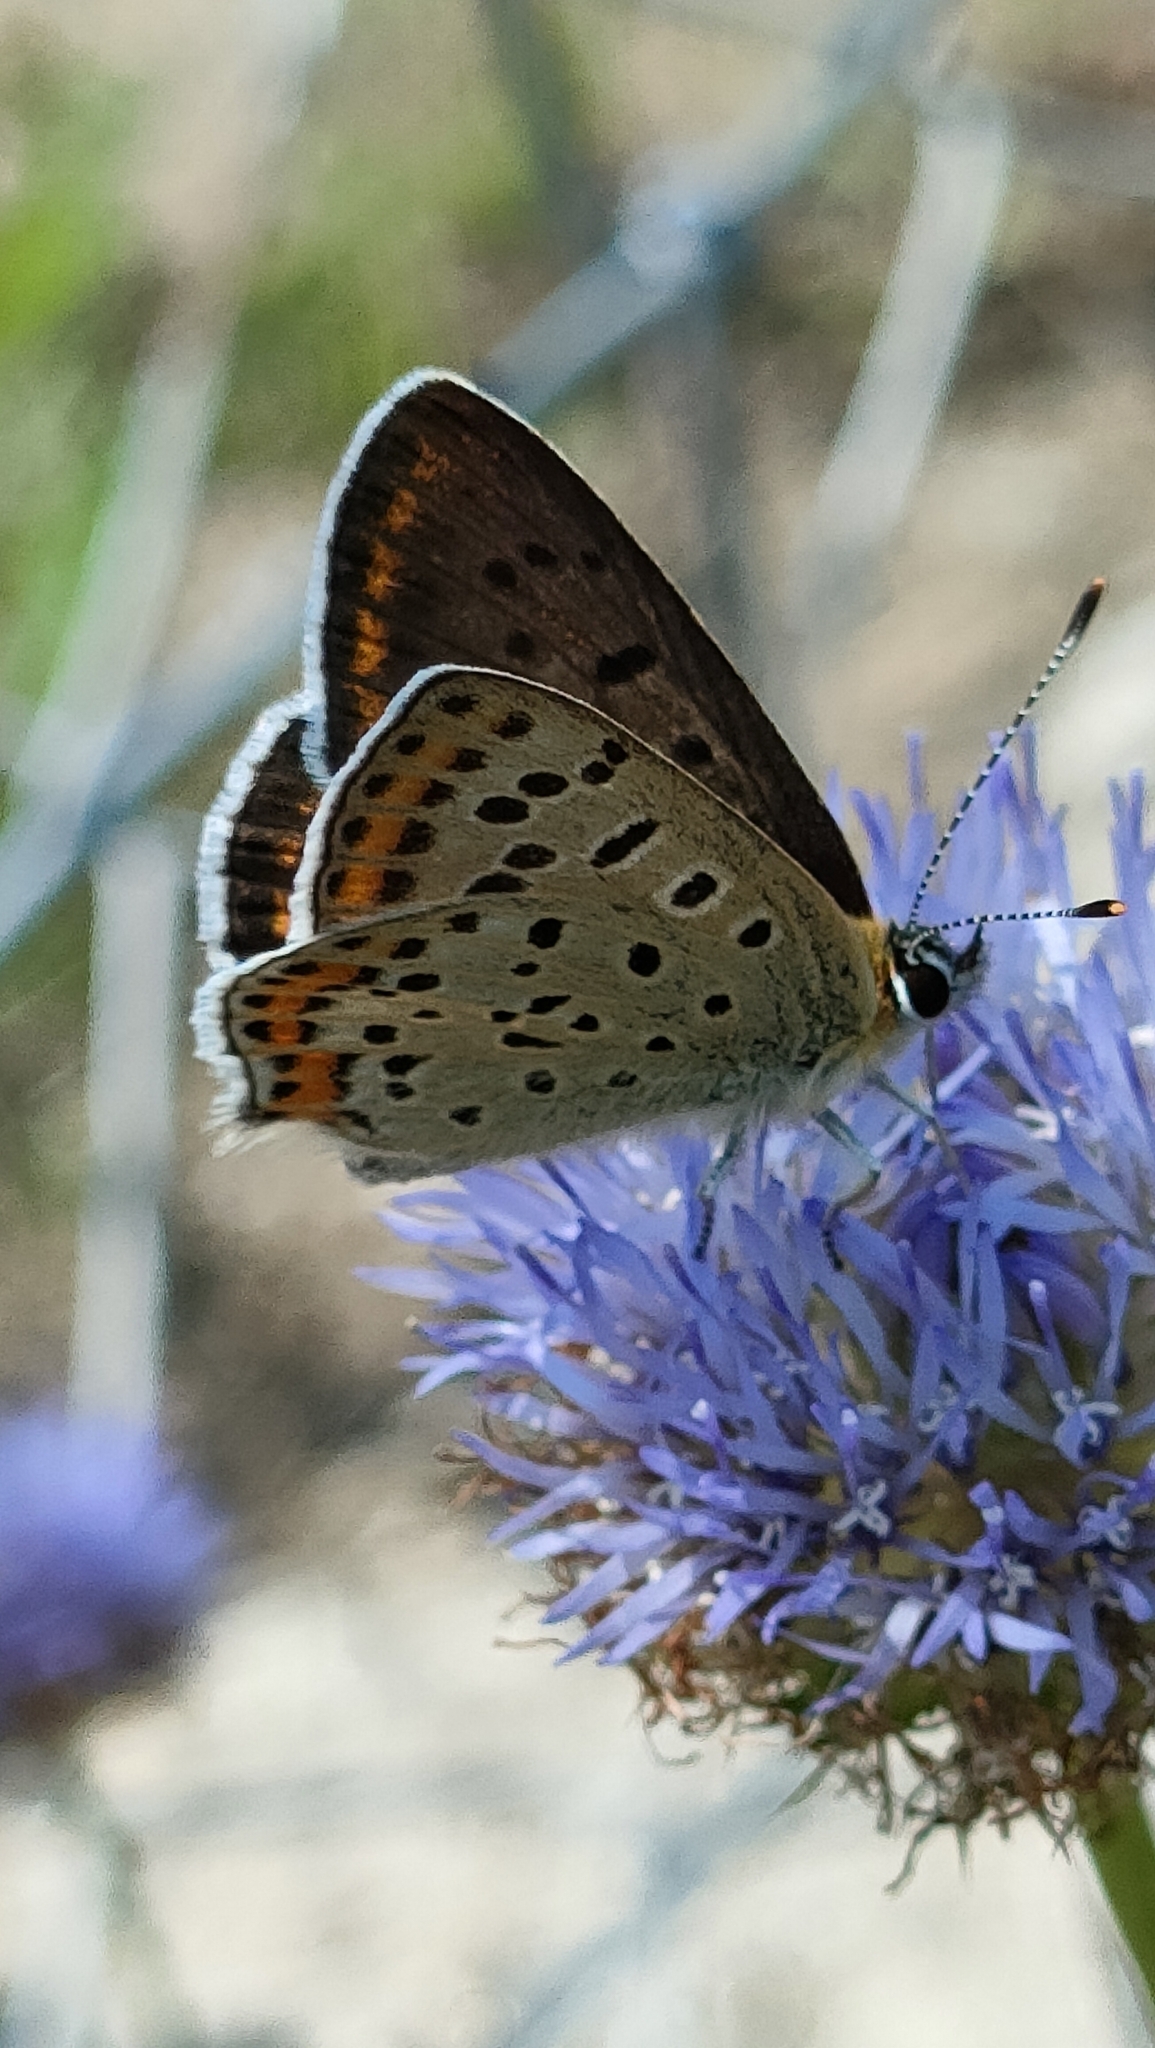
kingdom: Animalia
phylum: Arthropoda
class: Insecta
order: Lepidoptera
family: Lycaenidae
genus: Loweia
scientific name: Loweia tityrus
